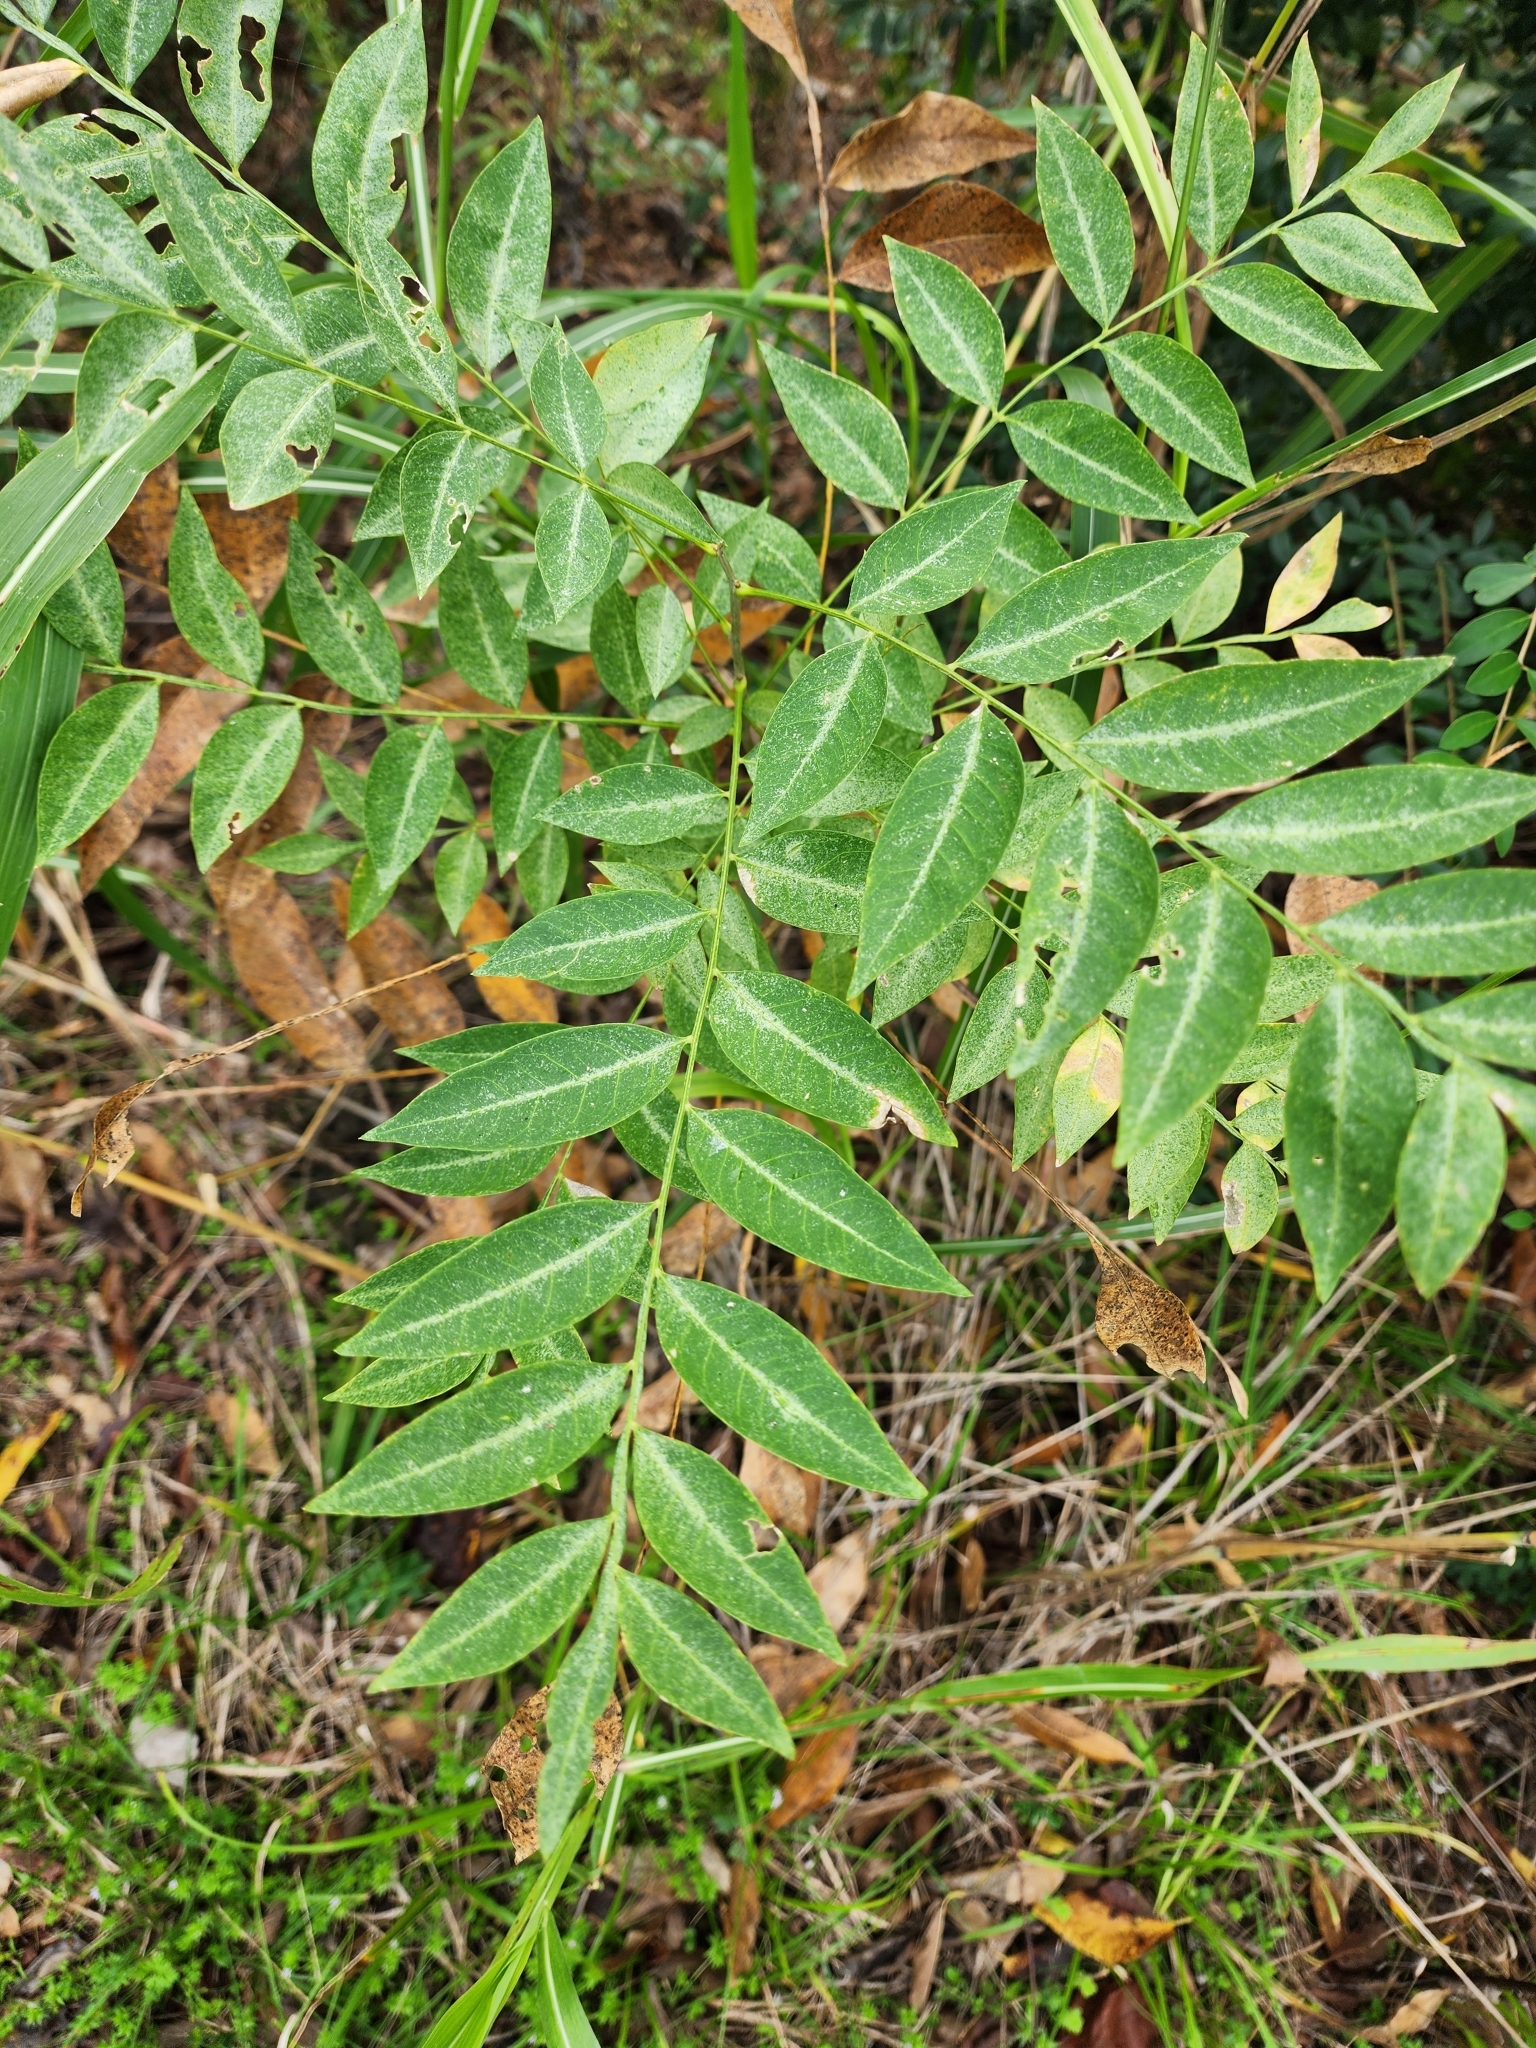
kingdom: Plantae
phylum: Tracheophyta
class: Magnoliopsida
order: Sapindales
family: Sapindaceae
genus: Sapindus
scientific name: Sapindus drummondii
